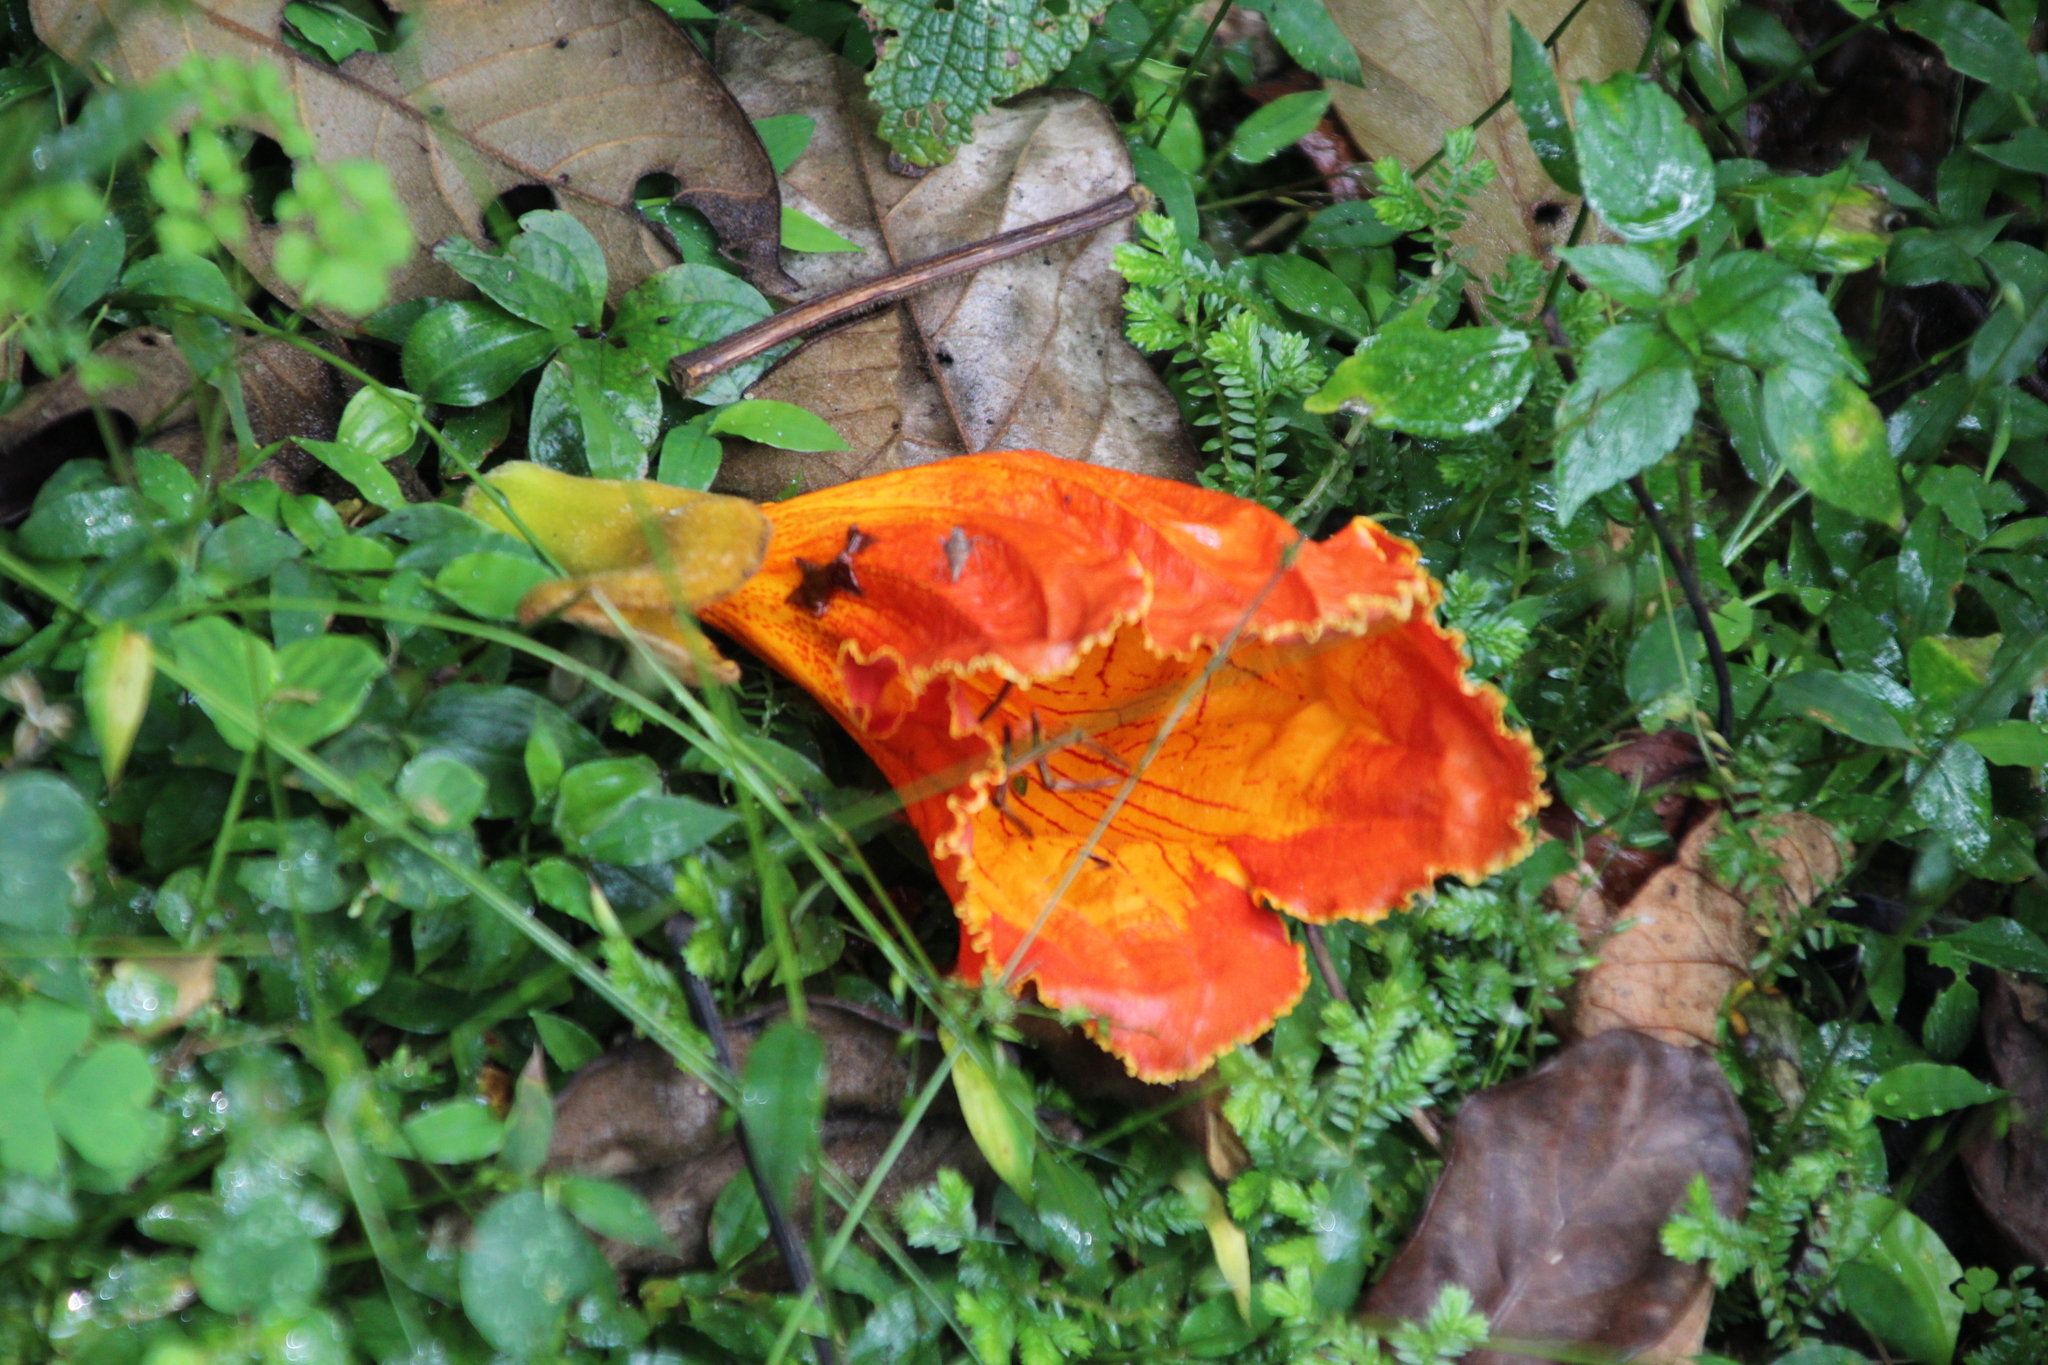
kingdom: Plantae
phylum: Tracheophyta
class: Magnoliopsida
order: Lamiales
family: Bignoniaceae
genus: Spathodea
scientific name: Spathodea campanulata
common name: African tuliptree
